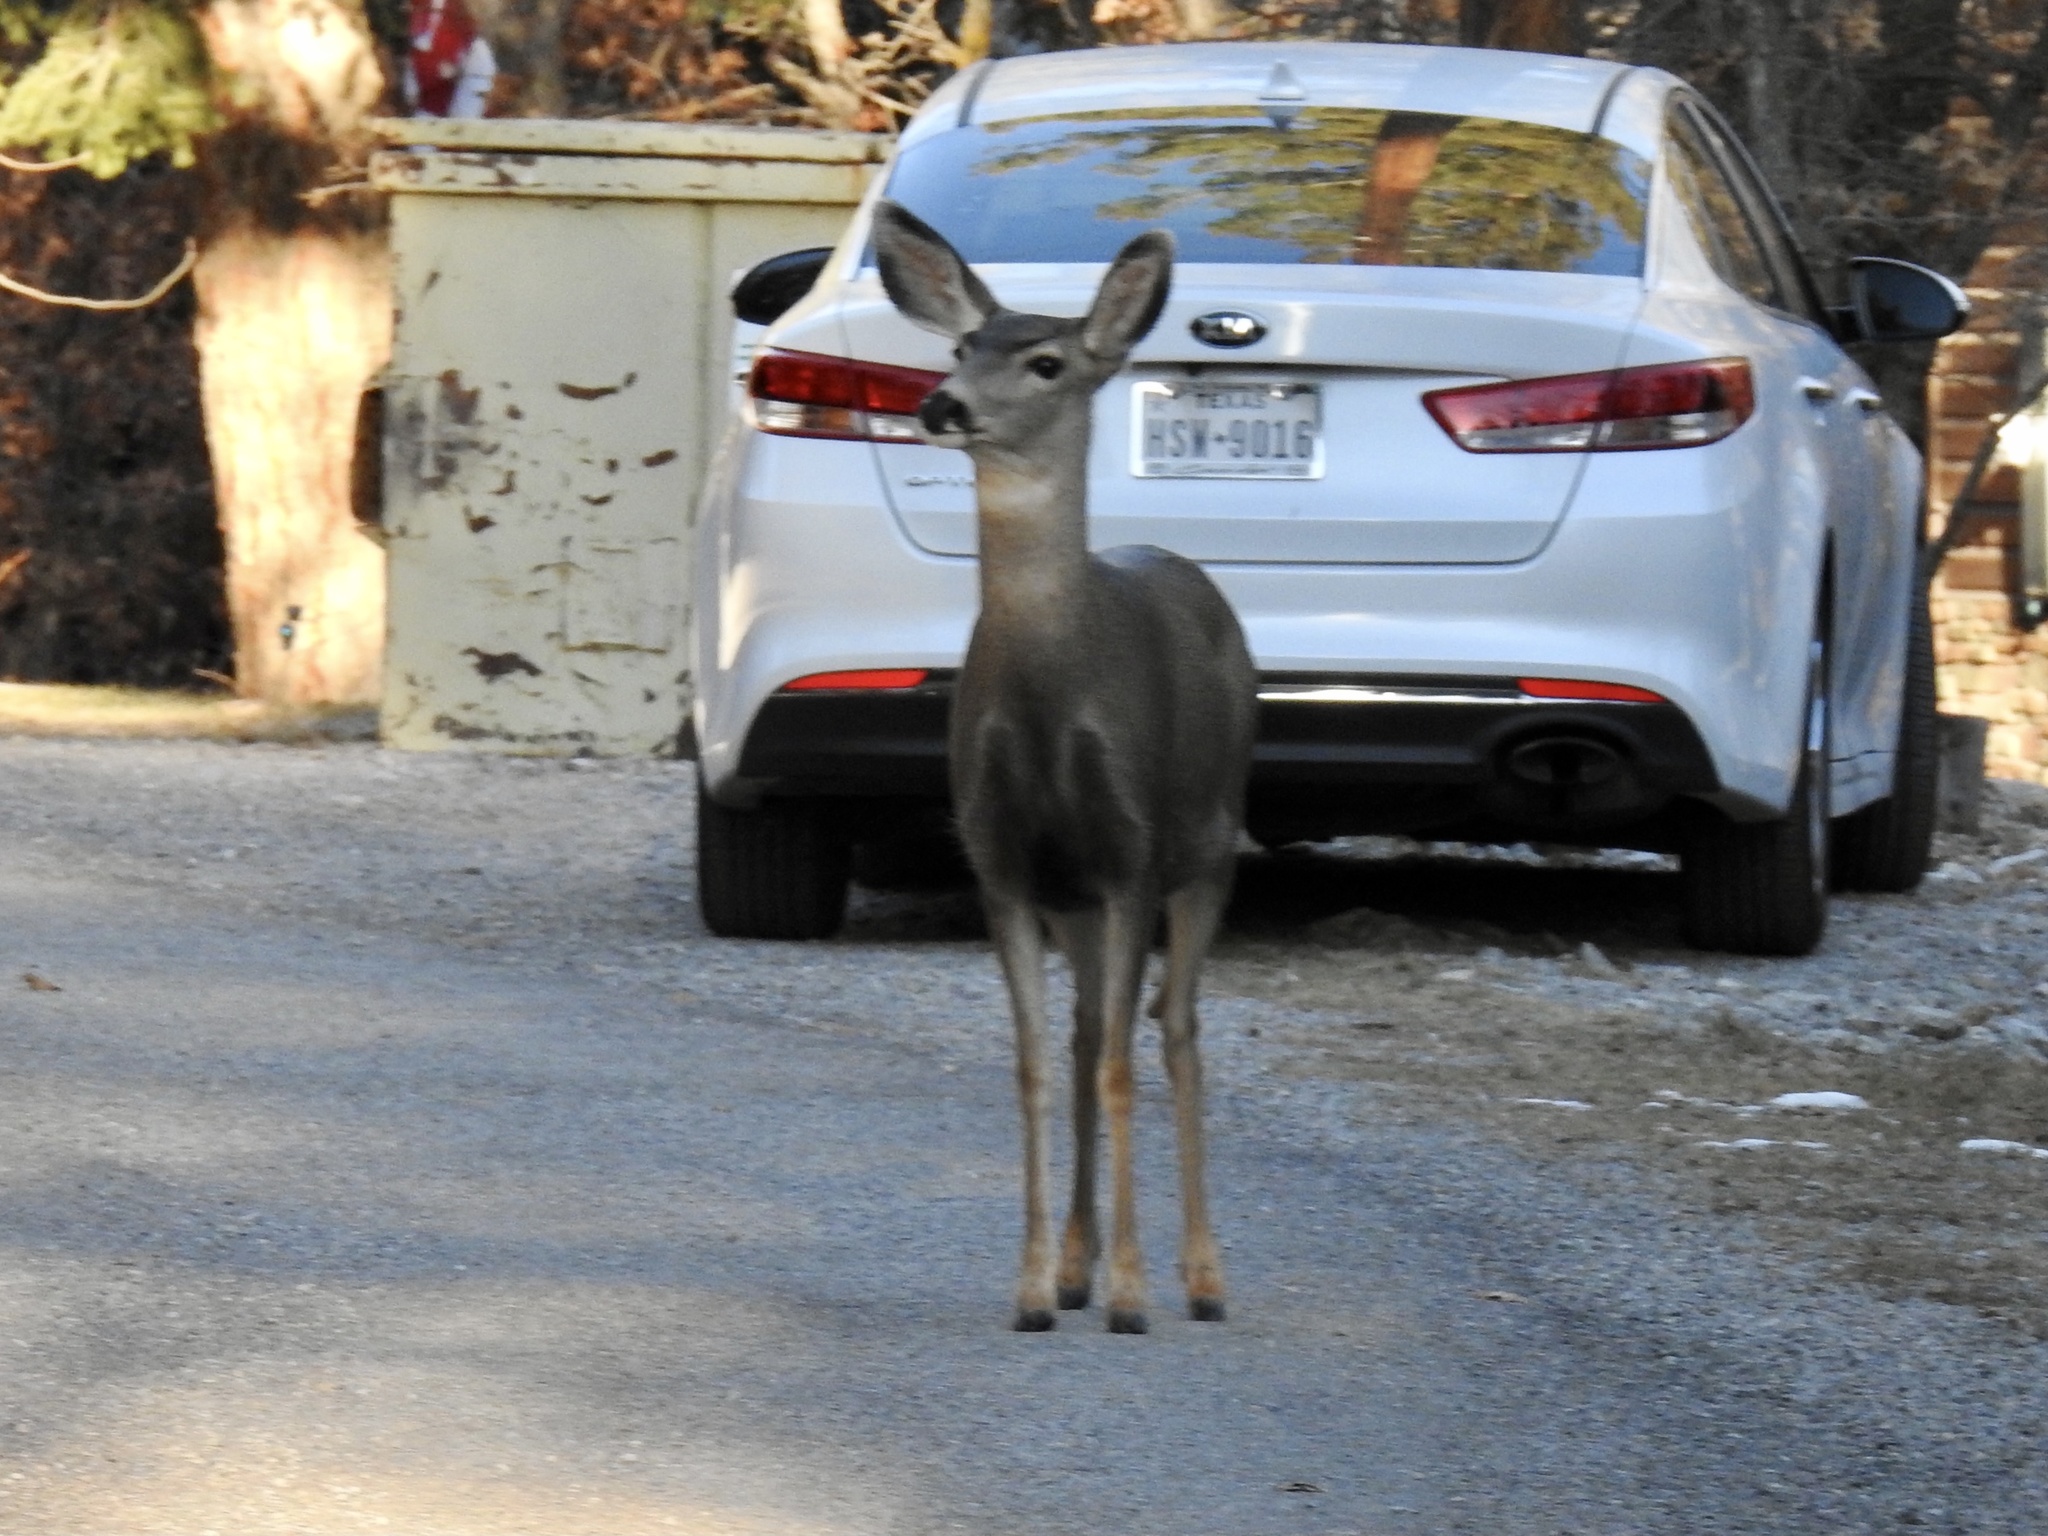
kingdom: Animalia
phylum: Chordata
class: Mammalia
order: Artiodactyla
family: Cervidae
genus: Odocoileus
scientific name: Odocoileus hemionus
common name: Mule deer
